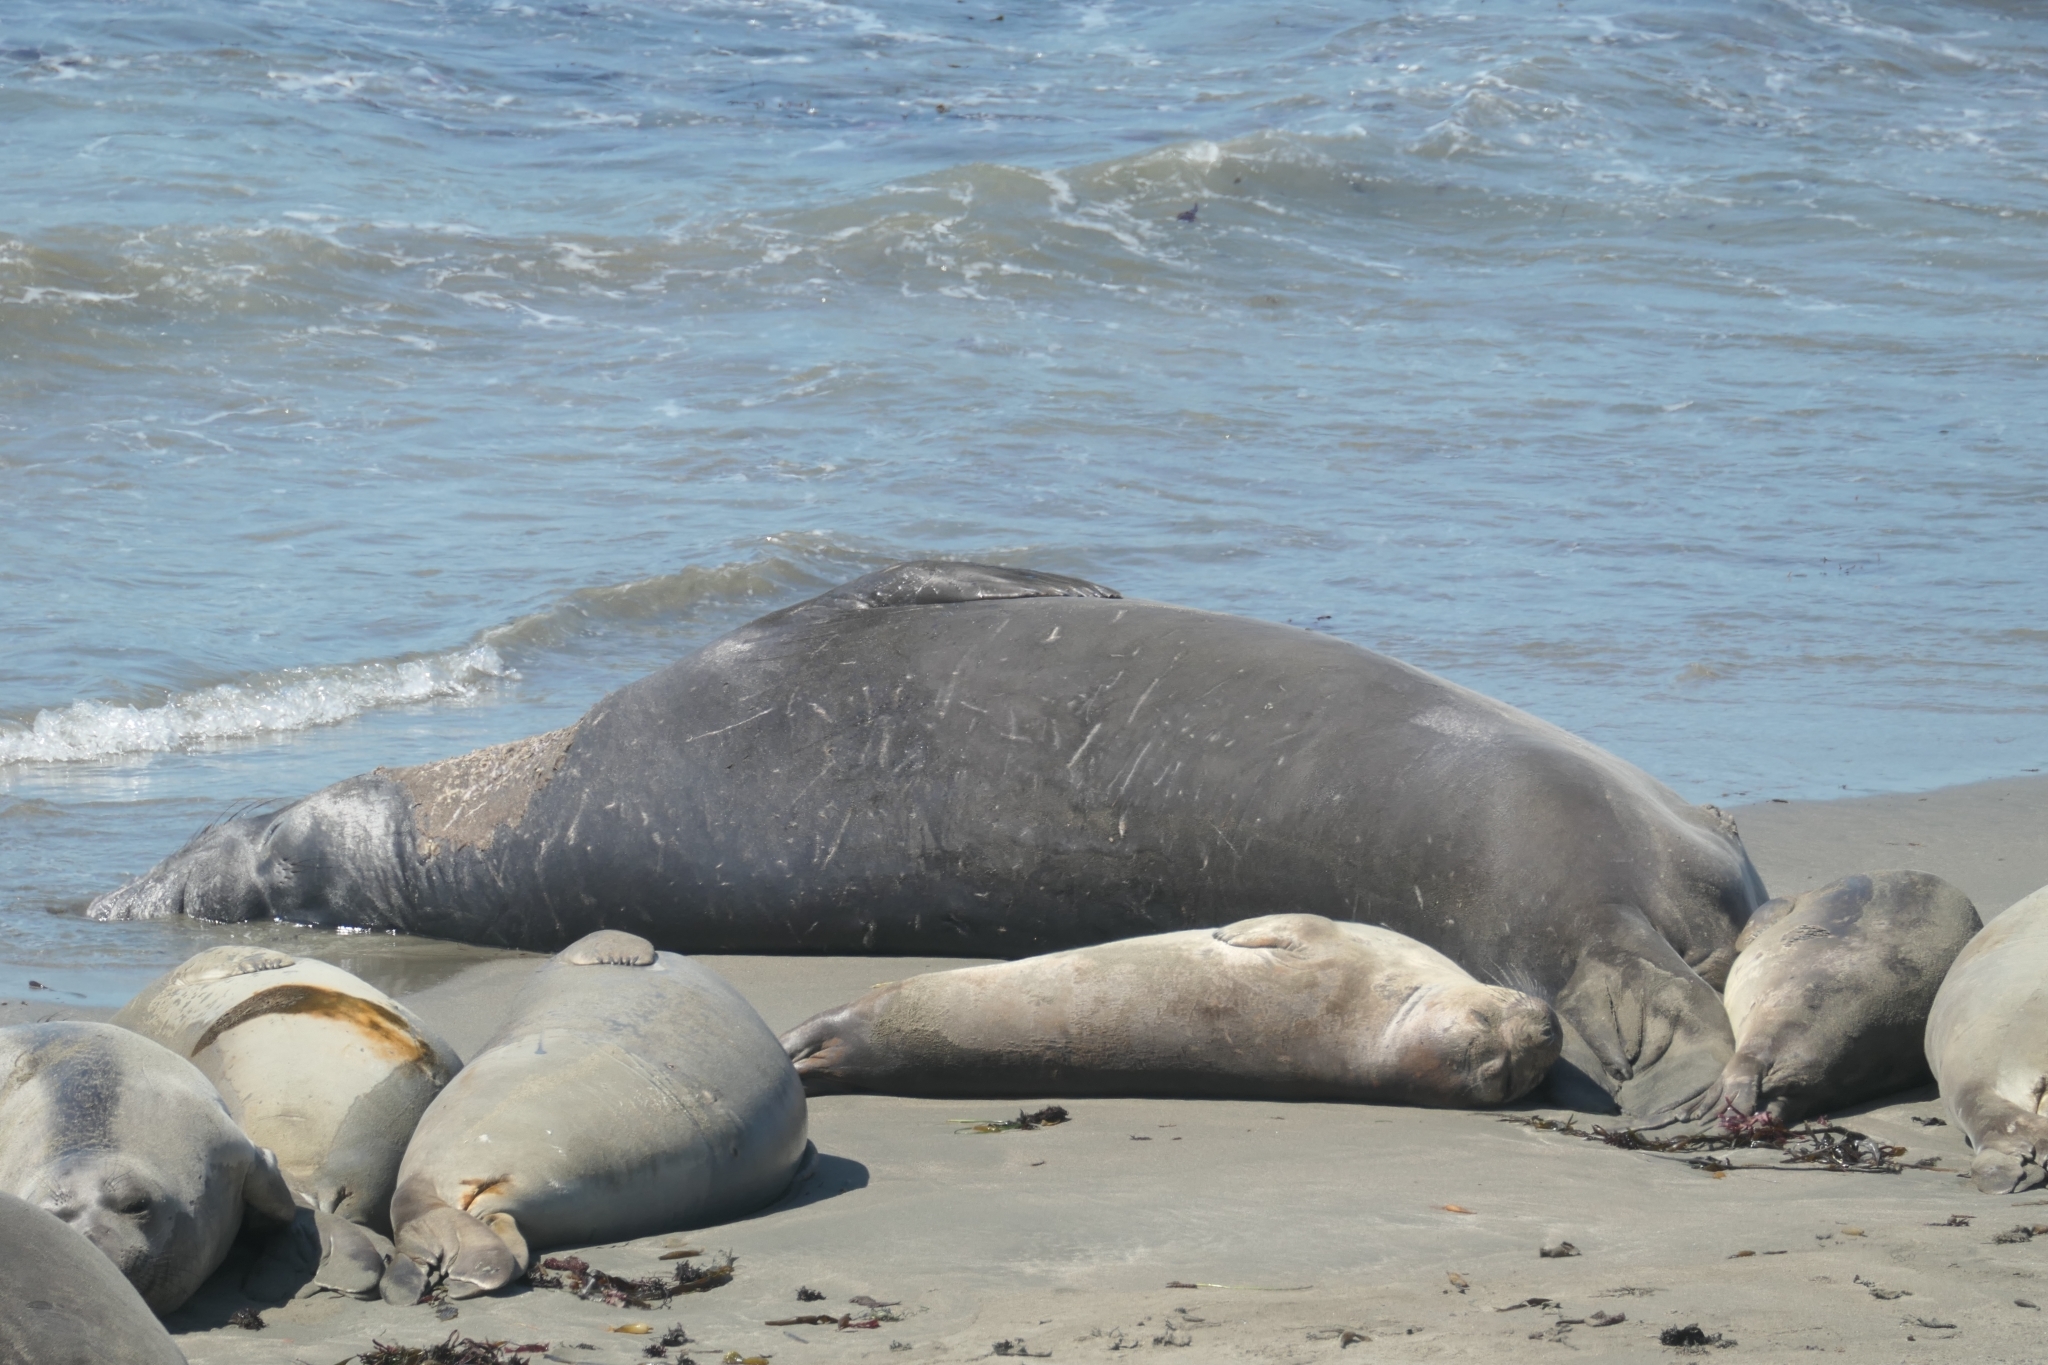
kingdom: Animalia
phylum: Chordata
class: Mammalia
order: Carnivora
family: Phocidae
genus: Mirounga
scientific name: Mirounga angustirostris
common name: Northern elephant seal
